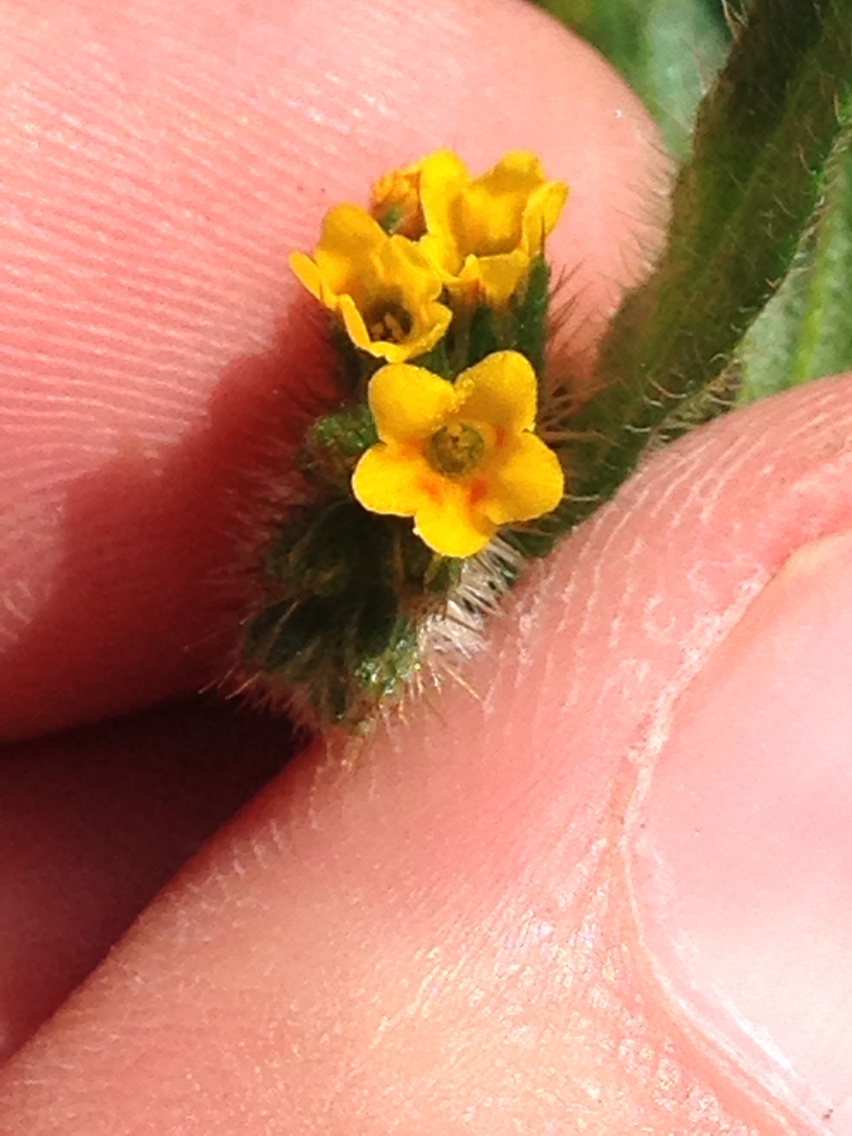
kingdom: Plantae
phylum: Tracheophyta
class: Magnoliopsida
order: Boraginales
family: Boraginaceae
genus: Amsinckia
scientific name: Amsinckia menziesii
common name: Menzies' fiddleneck
